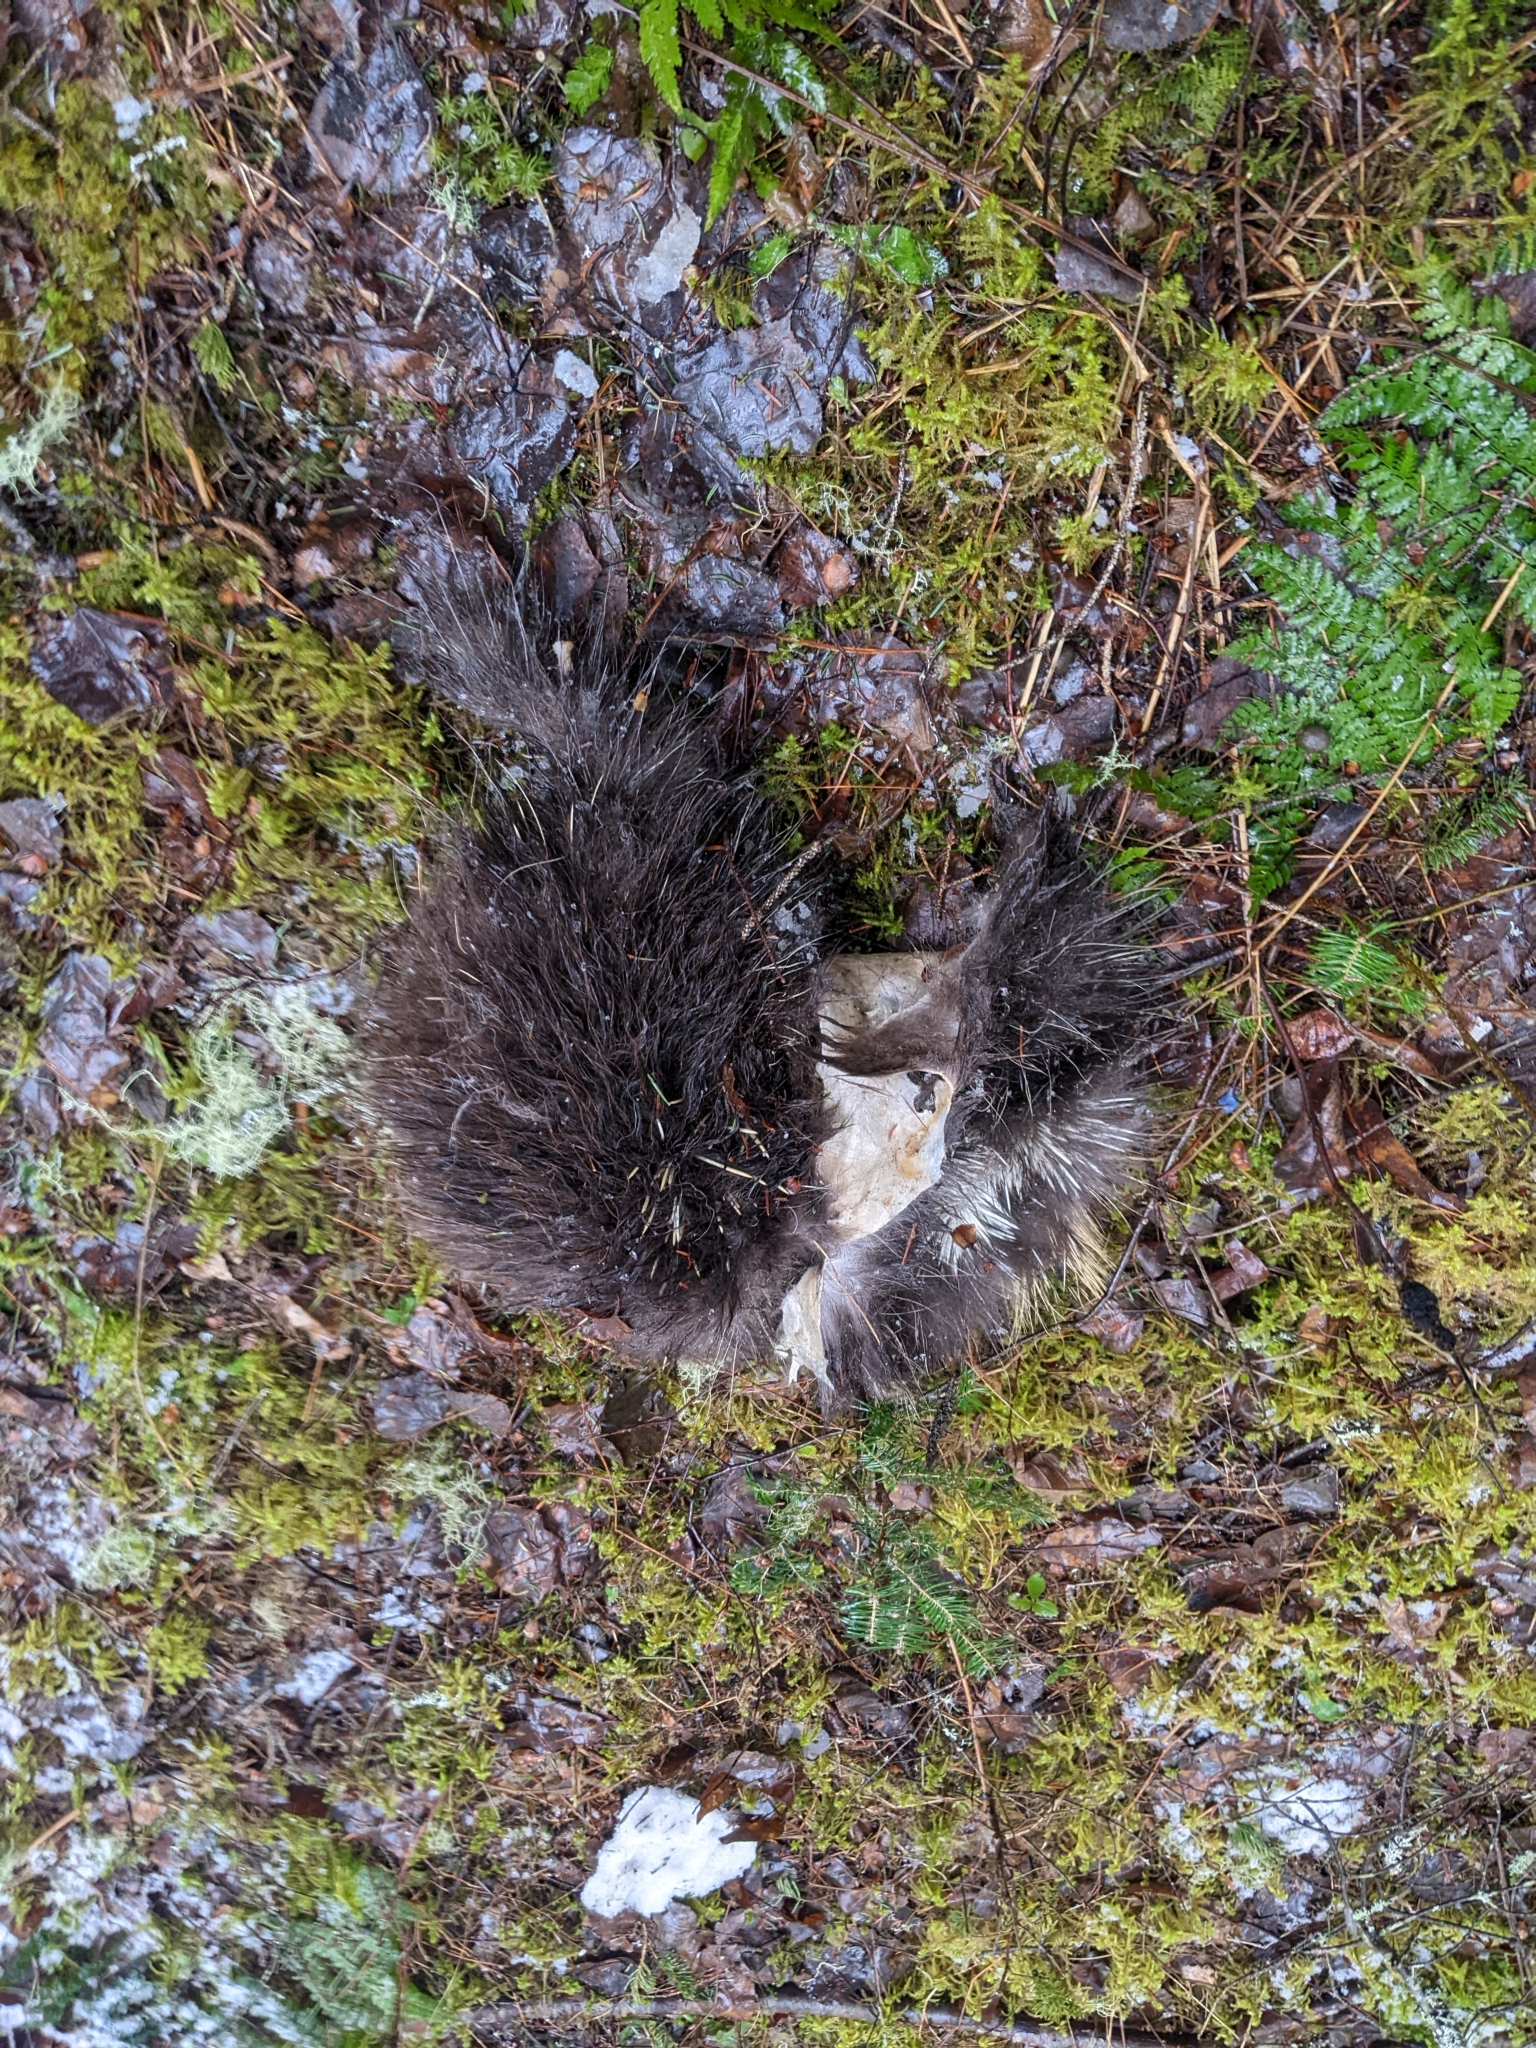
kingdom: Animalia
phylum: Chordata
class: Mammalia
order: Rodentia
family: Erethizontidae
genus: Erethizon
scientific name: Erethizon dorsatus
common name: North american porcupine
